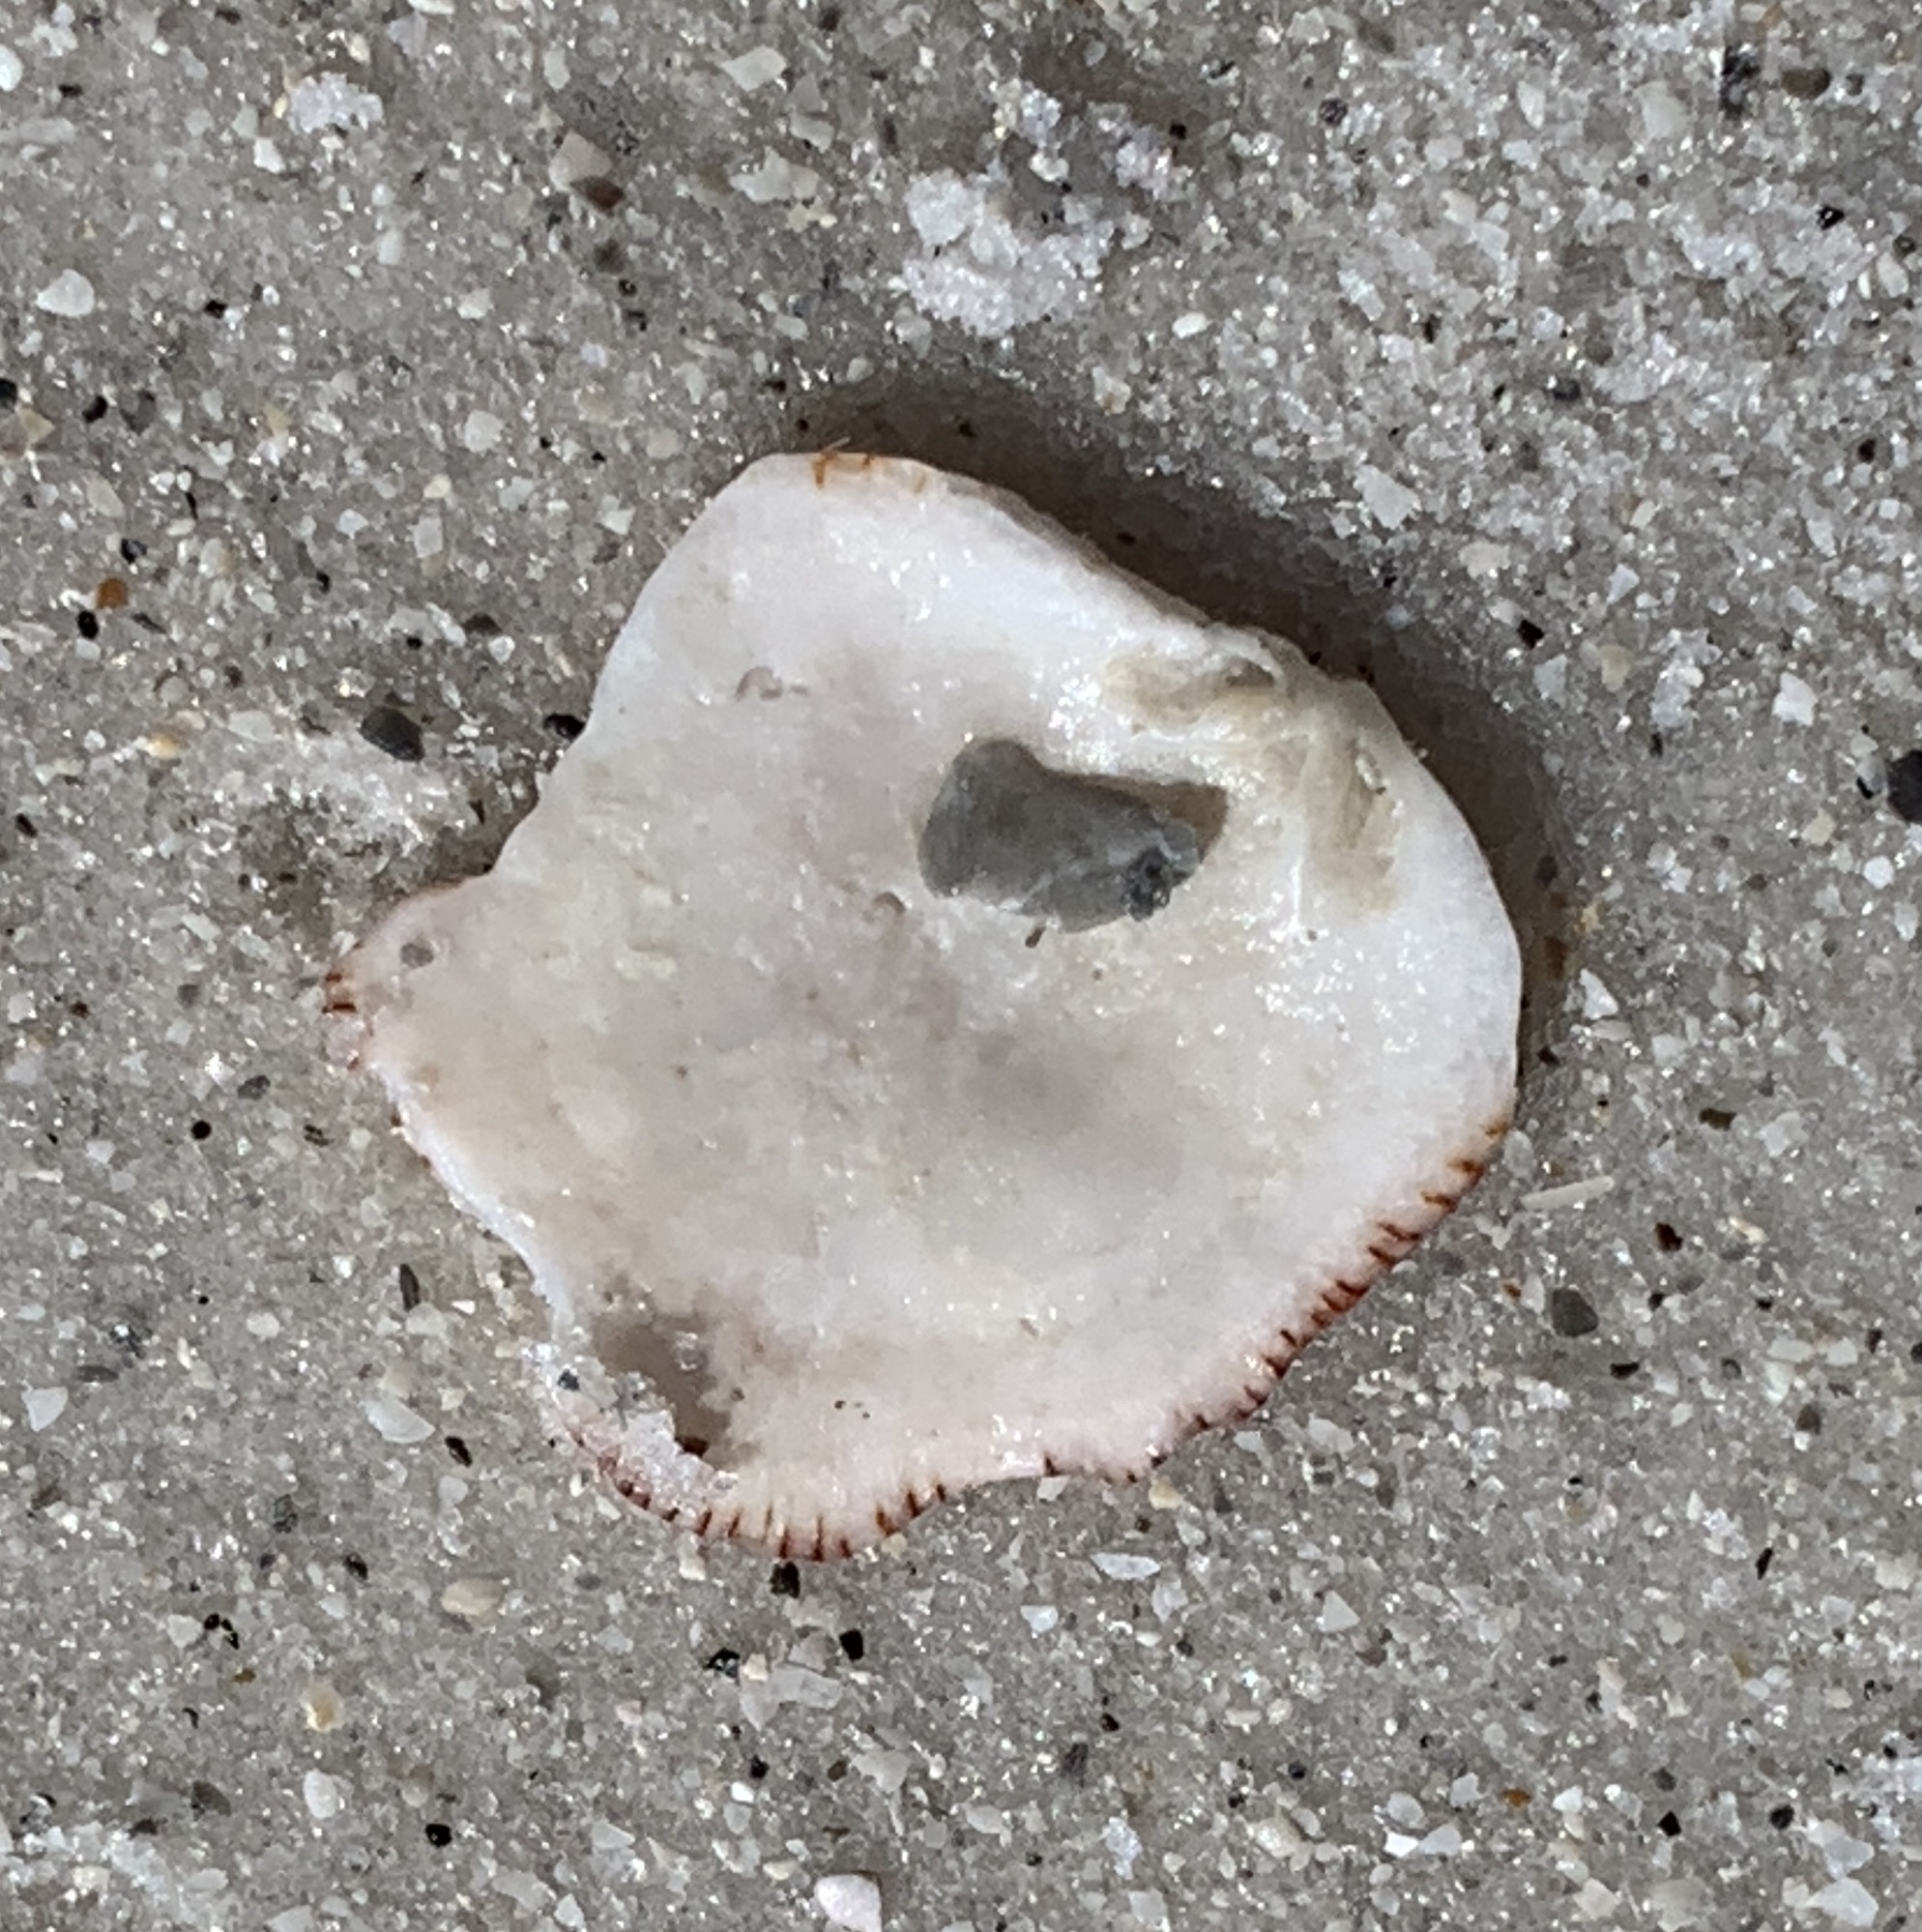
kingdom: Animalia
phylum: Mollusca
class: Bivalvia
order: Pectinida
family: Plicatulidae
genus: Plicatula
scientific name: Plicatula gibbosa
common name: Atlantic kitten's paw
